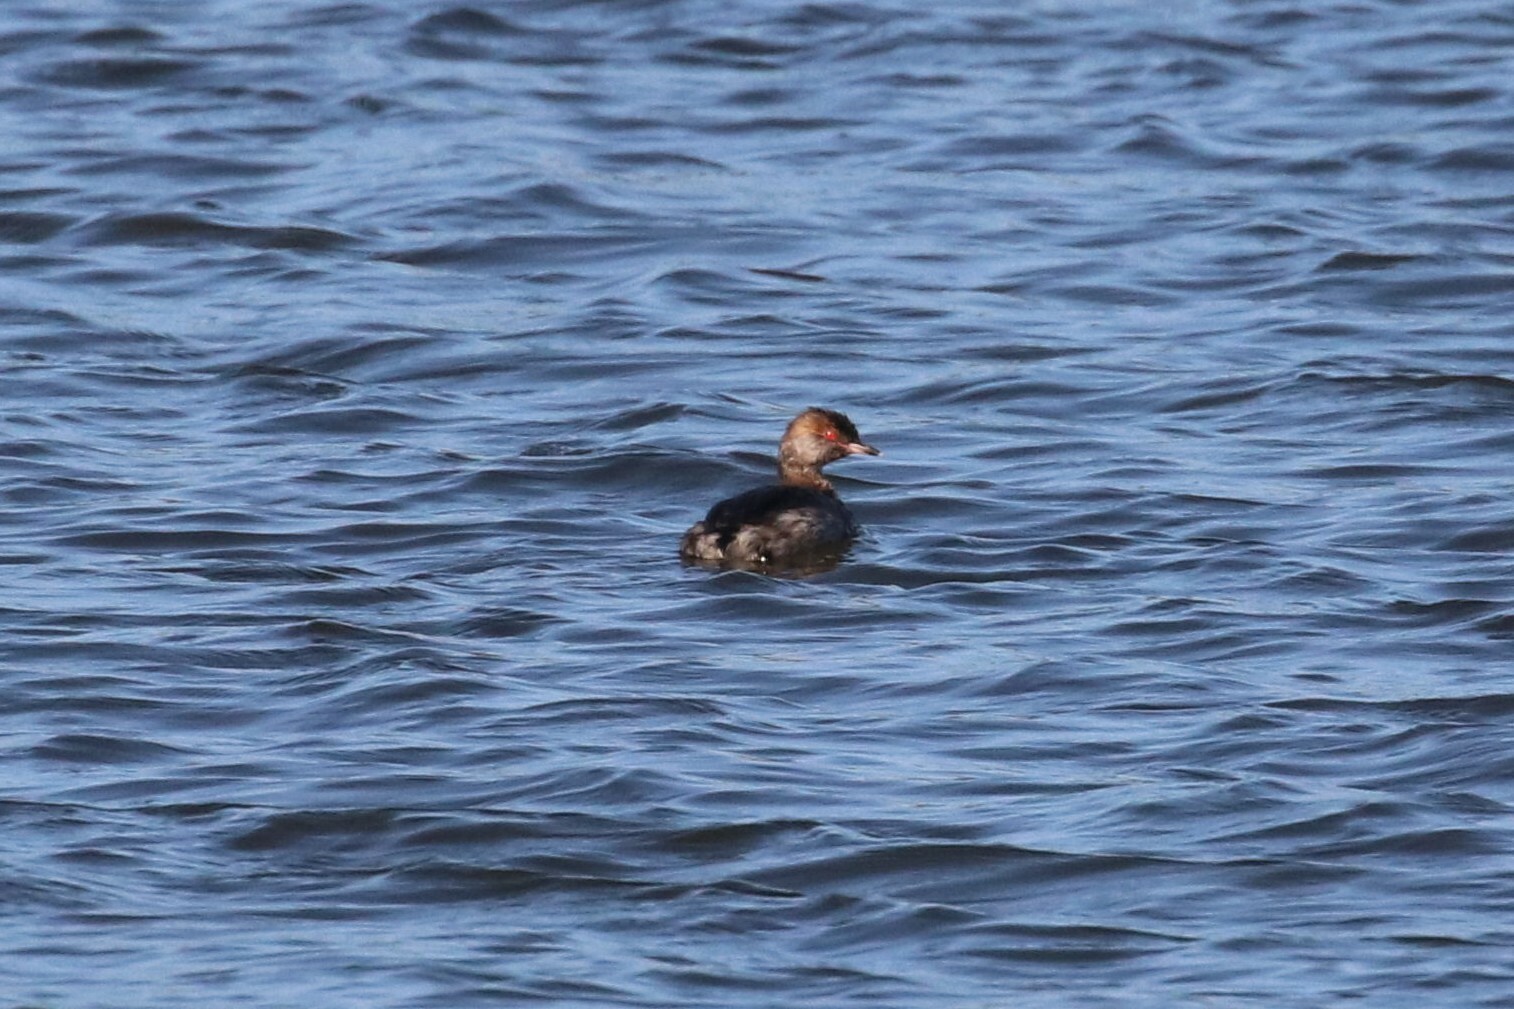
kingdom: Animalia
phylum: Chordata
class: Aves
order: Podicipediformes
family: Podicipedidae
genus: Podiceps
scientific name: Podiceps auritus
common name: Horned grebe
